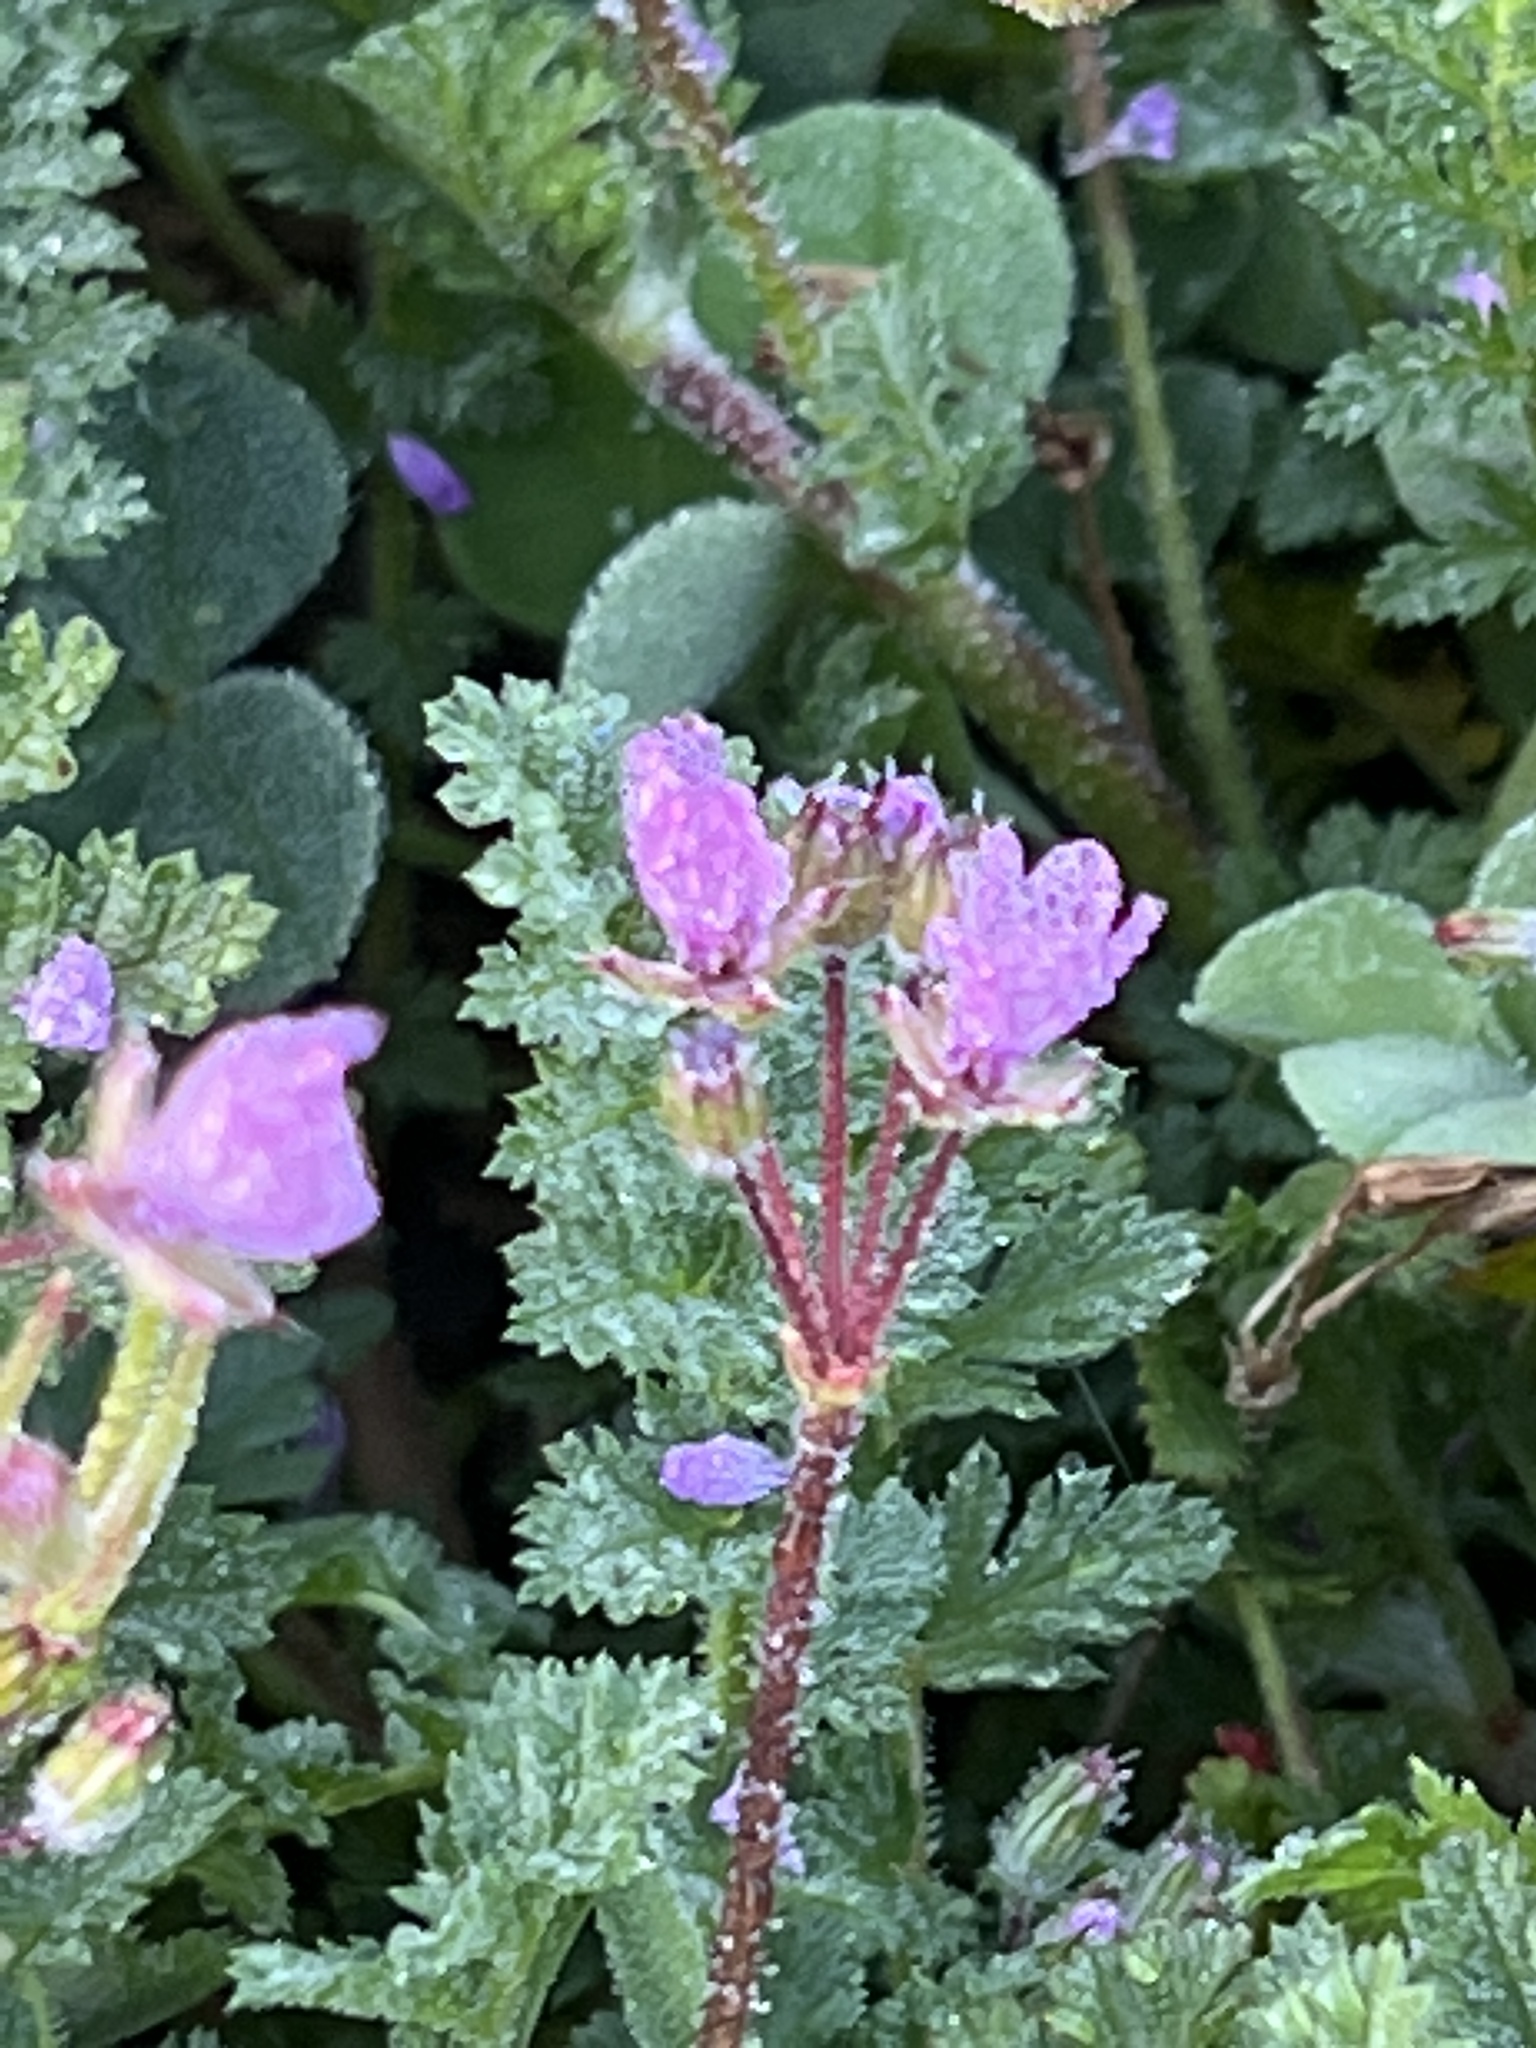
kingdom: Plantae
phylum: Tracheophyta
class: Magnoliopsida
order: Geraniales
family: Geraniaceae
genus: Erodium
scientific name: Erodium cicutarium
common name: Common stork's-bill
